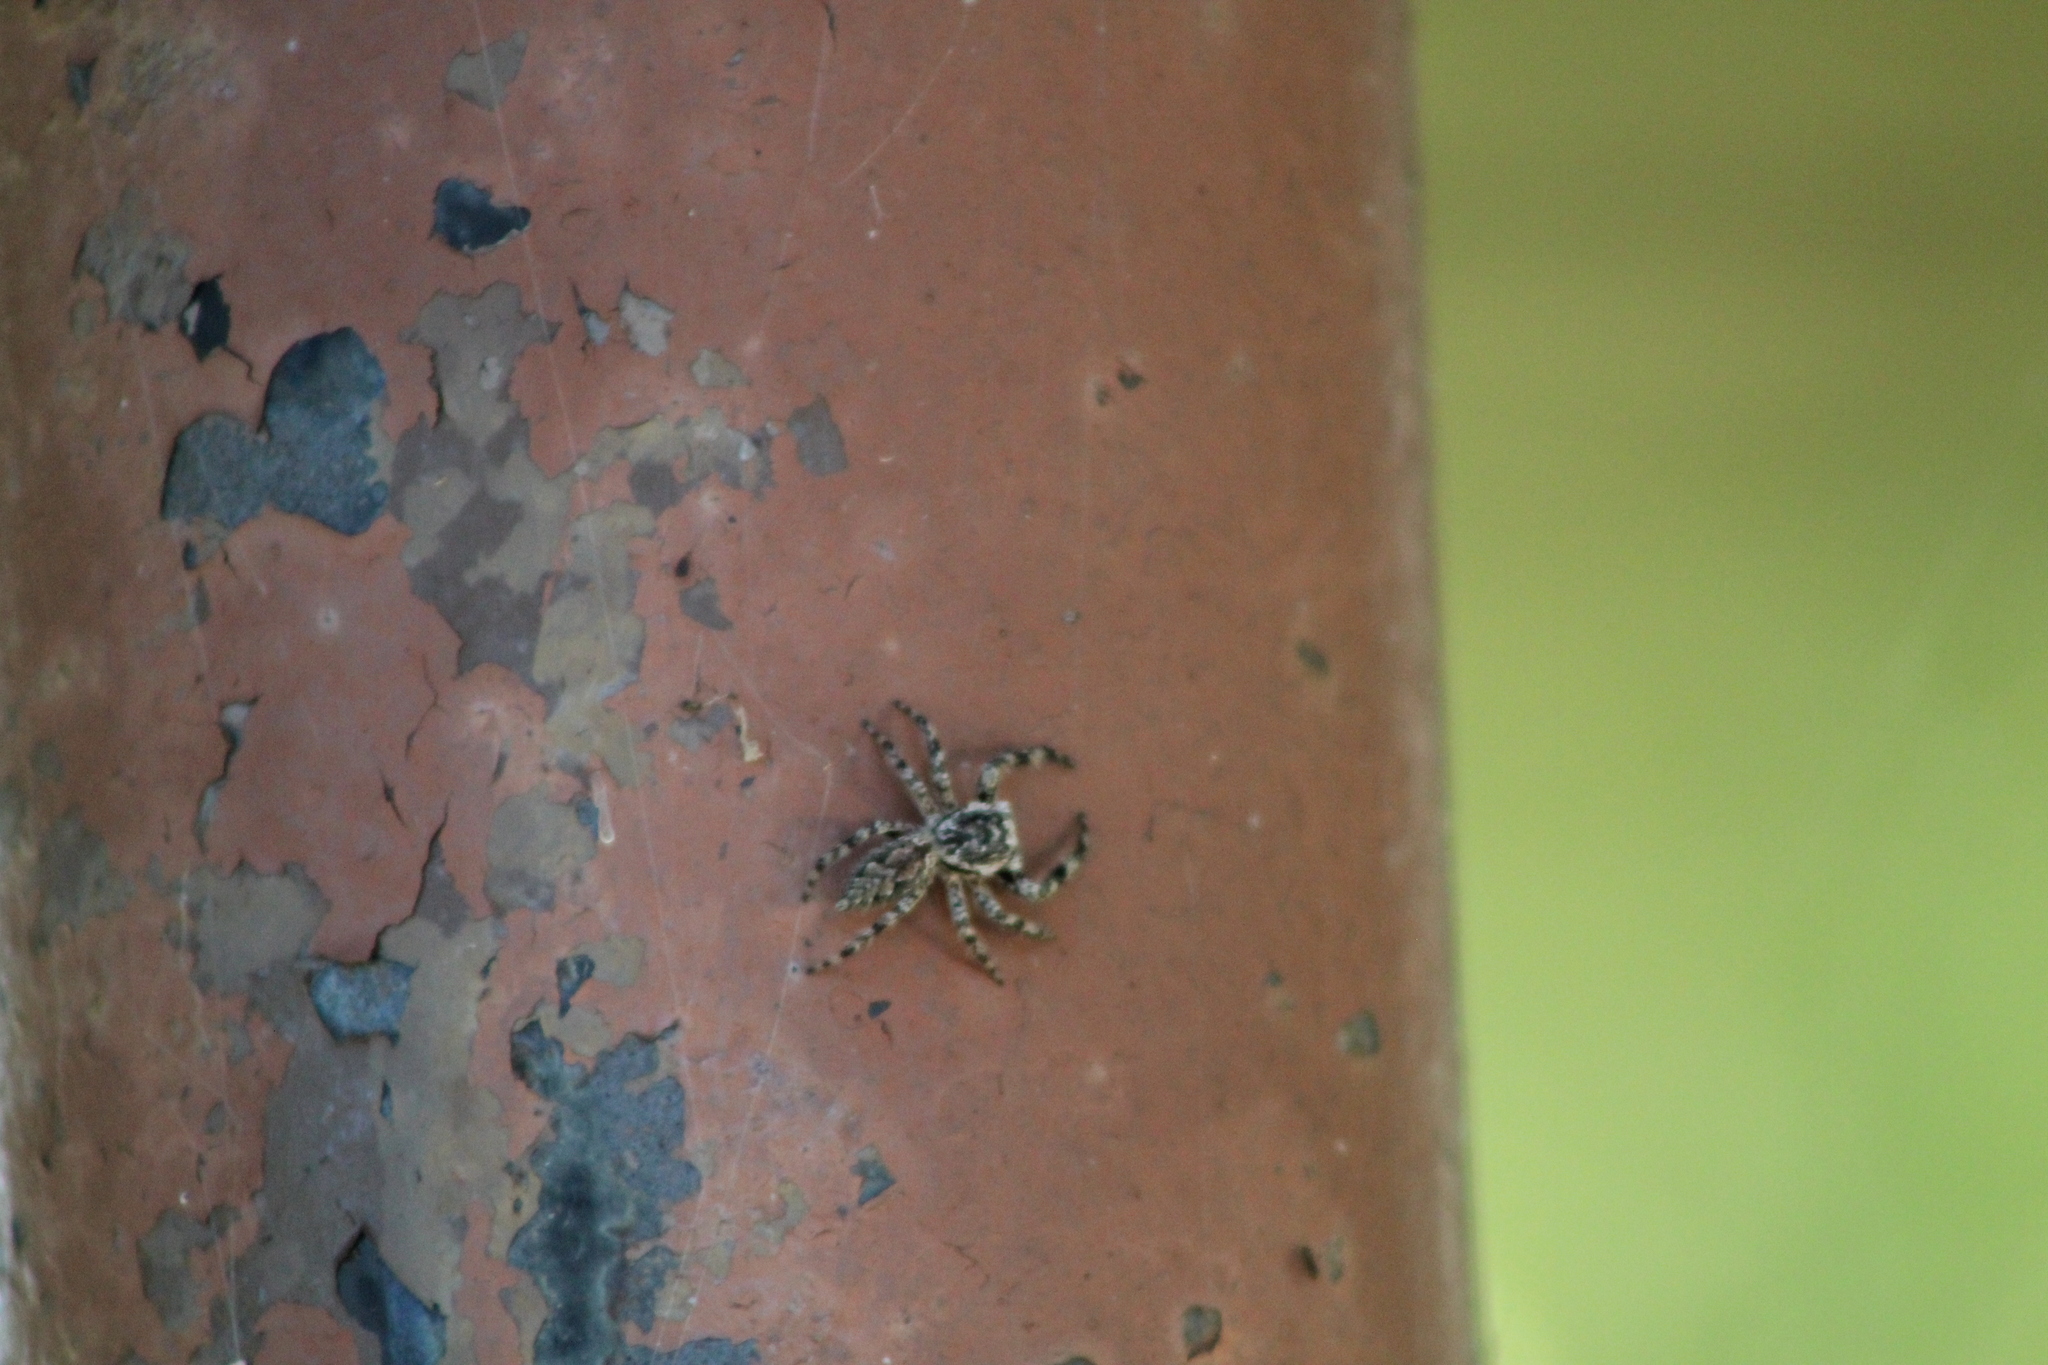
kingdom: Animalia
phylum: Arthropoda
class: Arachnida
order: Araneae
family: Salticidae
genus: Platycryptus
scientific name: Platycryptus undatus
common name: Tan jumping spider
